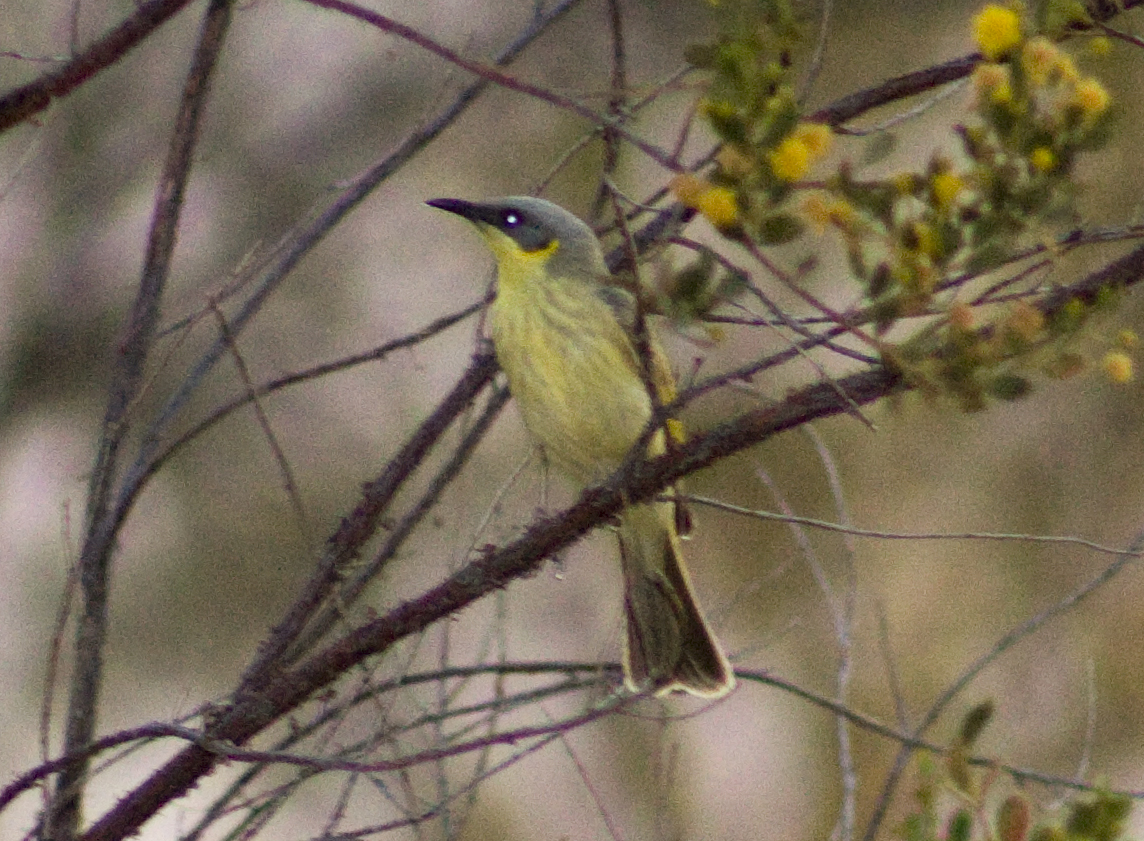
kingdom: Animalia
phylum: Chordata
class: Aves
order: Passeriformes
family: Meliphagidae
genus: Ptilotula
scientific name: Ptilotula keartlandi
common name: Grey-headed honeyeater
